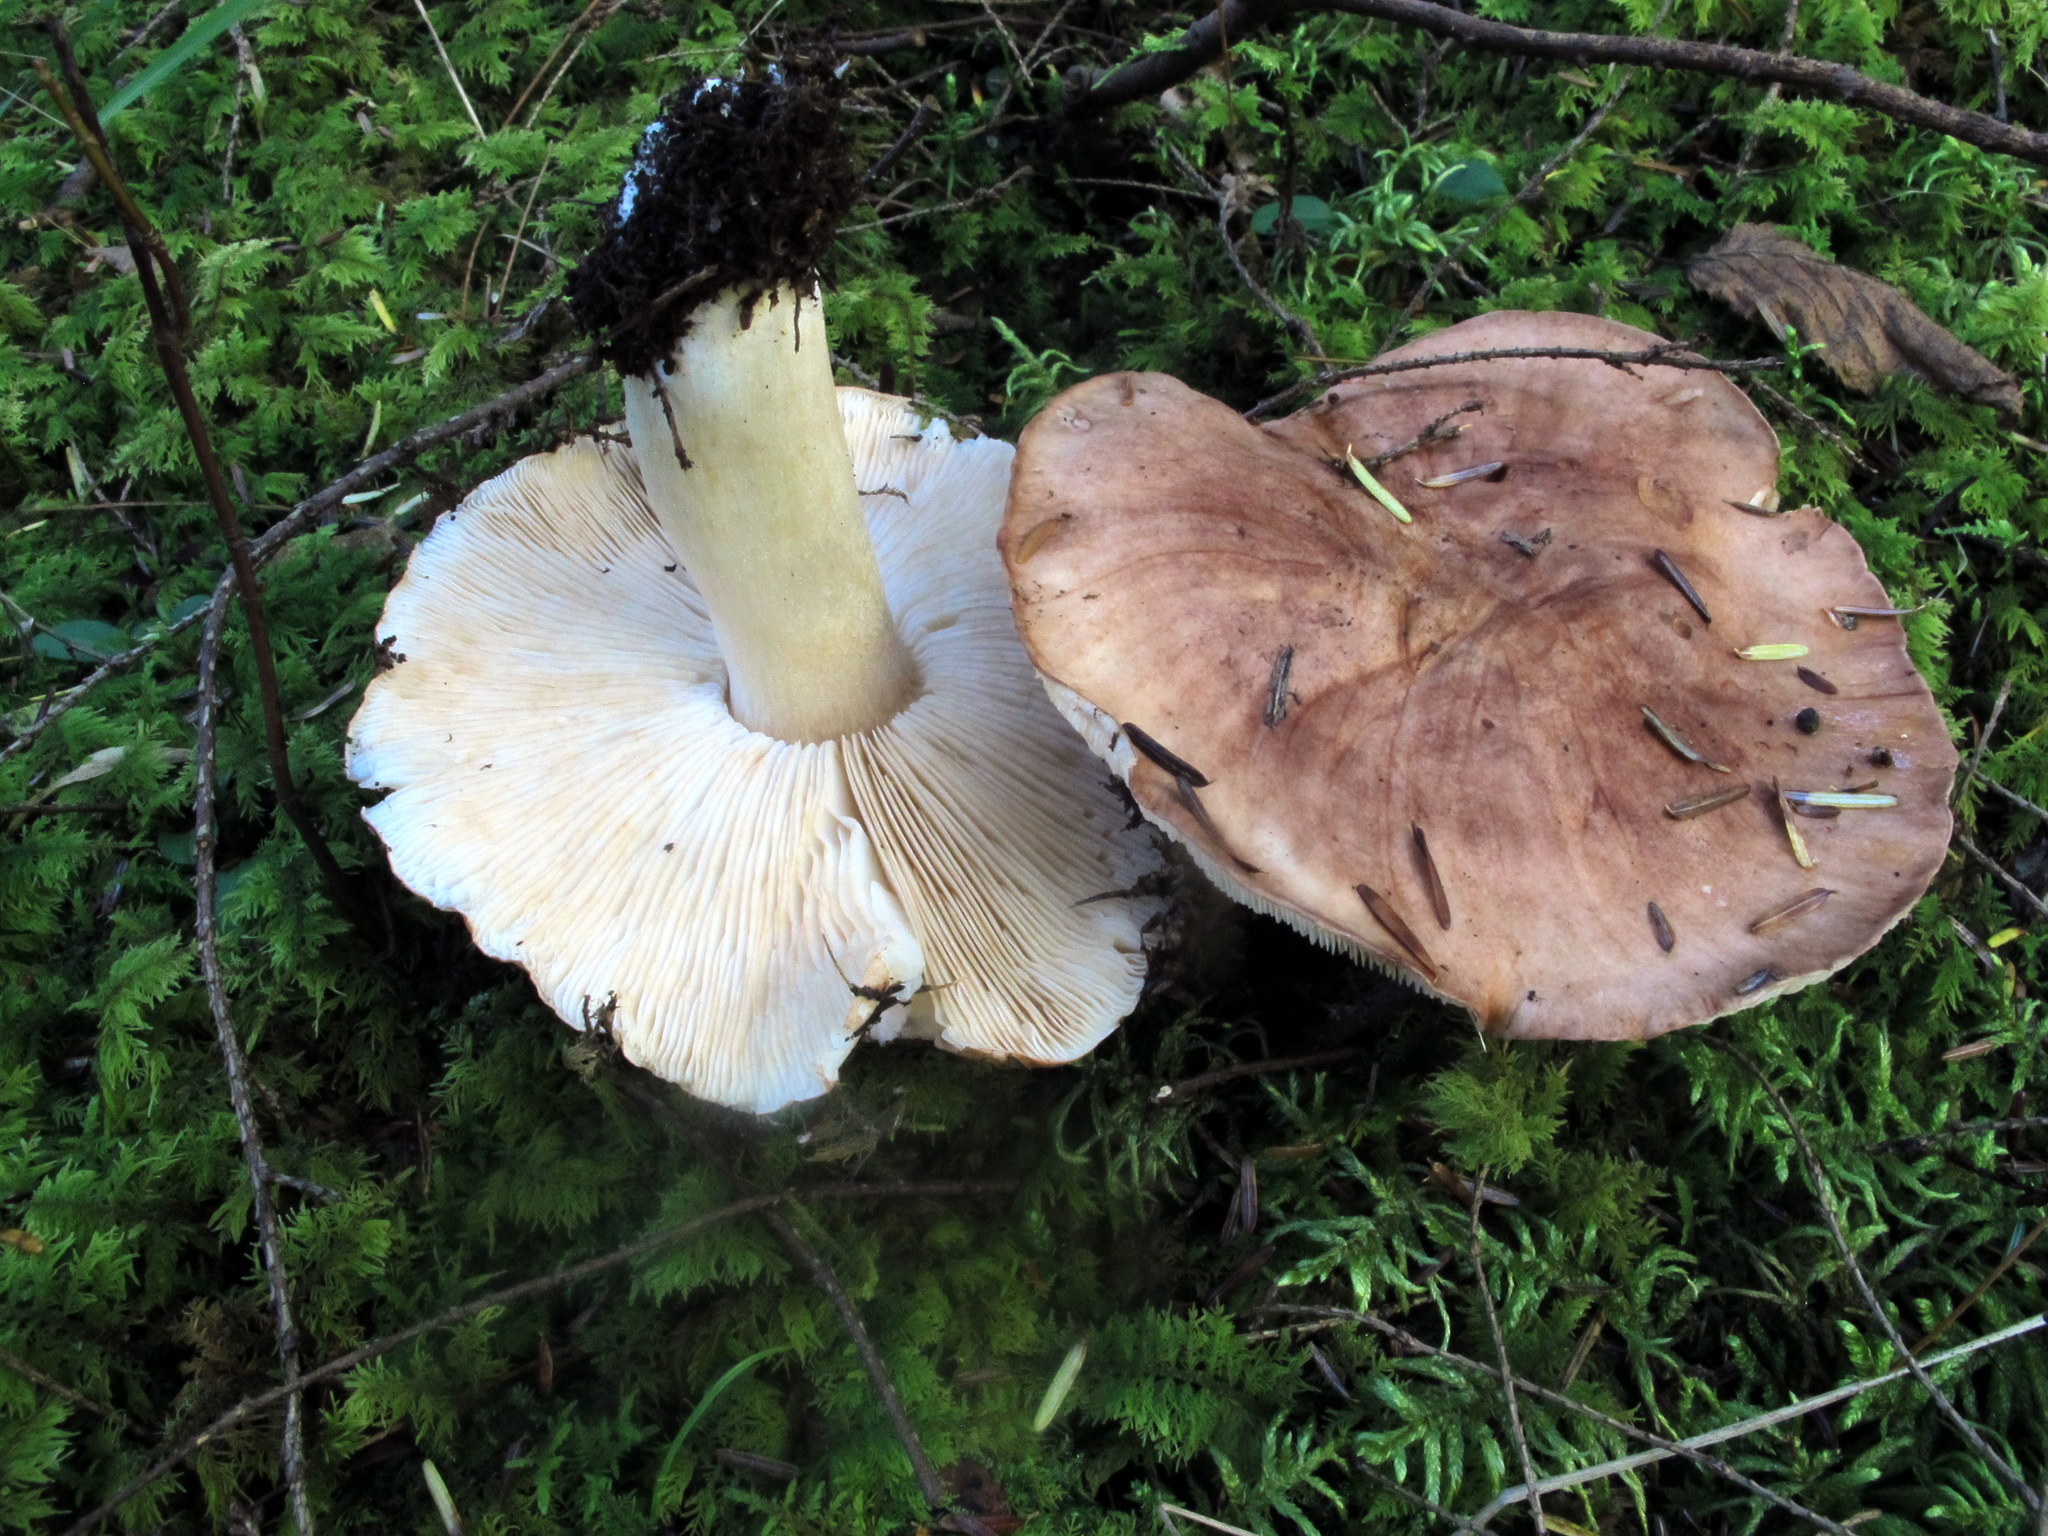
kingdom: Fungi
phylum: Basidiomycota
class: Agaricomycetes
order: Agaricales
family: Tricholomataceae
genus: Tricholoma
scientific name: Tricholoma fulvum
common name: Birch knight
